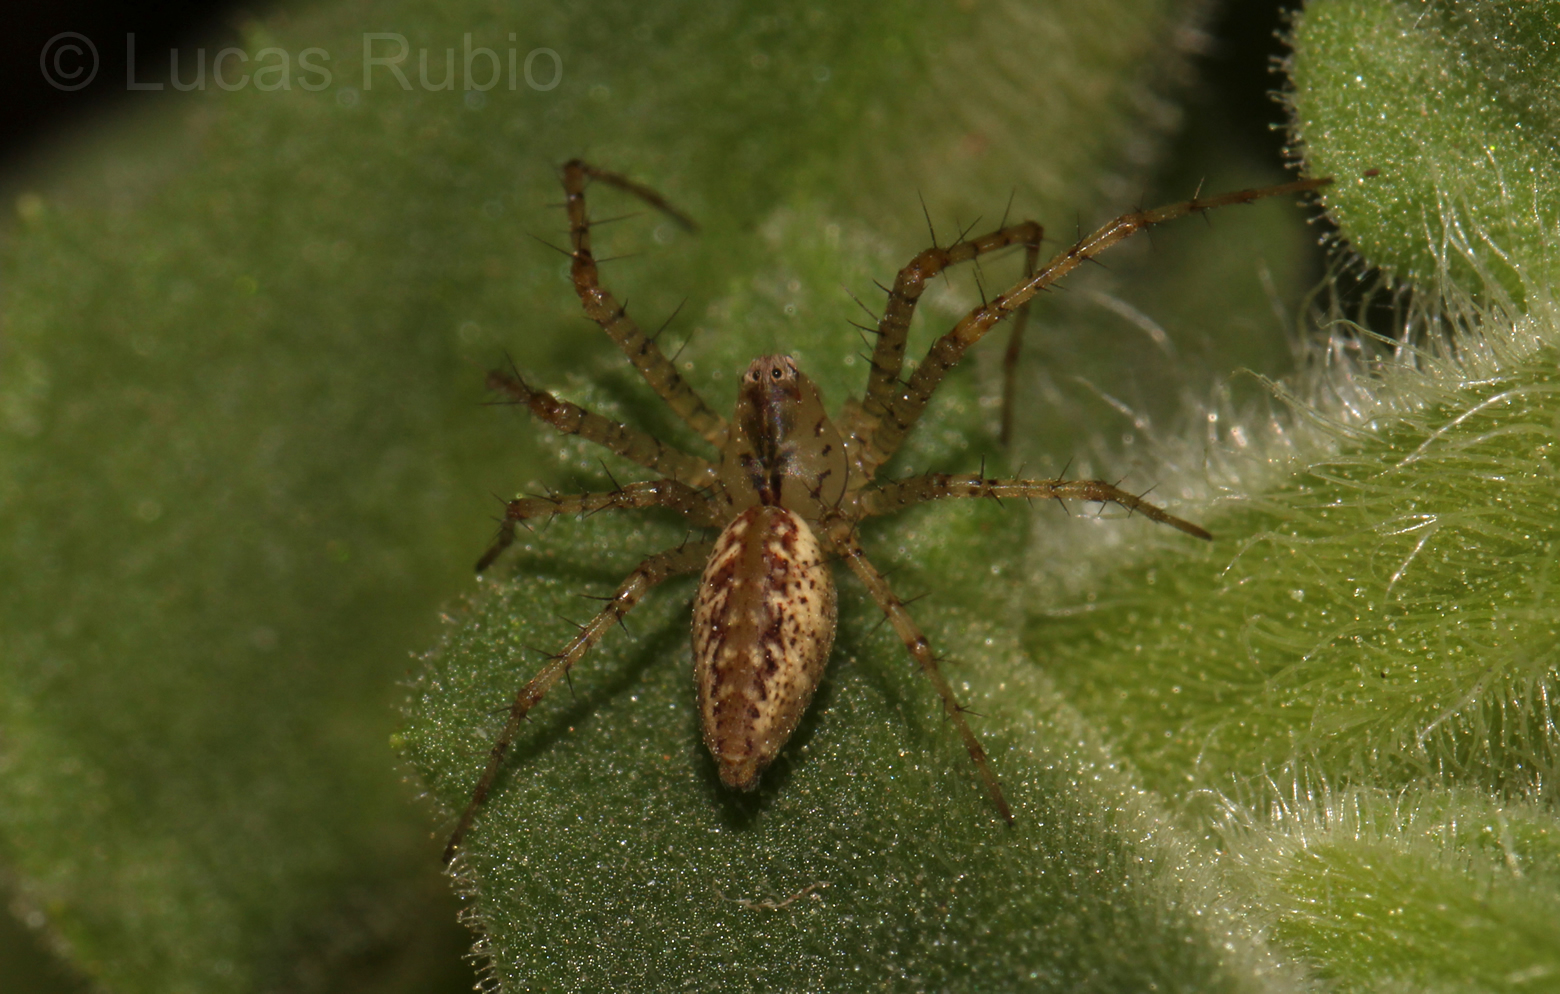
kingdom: Animalia
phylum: Arthropoda
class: Arachnida
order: Araneae
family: Oxyopidae
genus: Peucetia
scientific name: Peucetia flava
